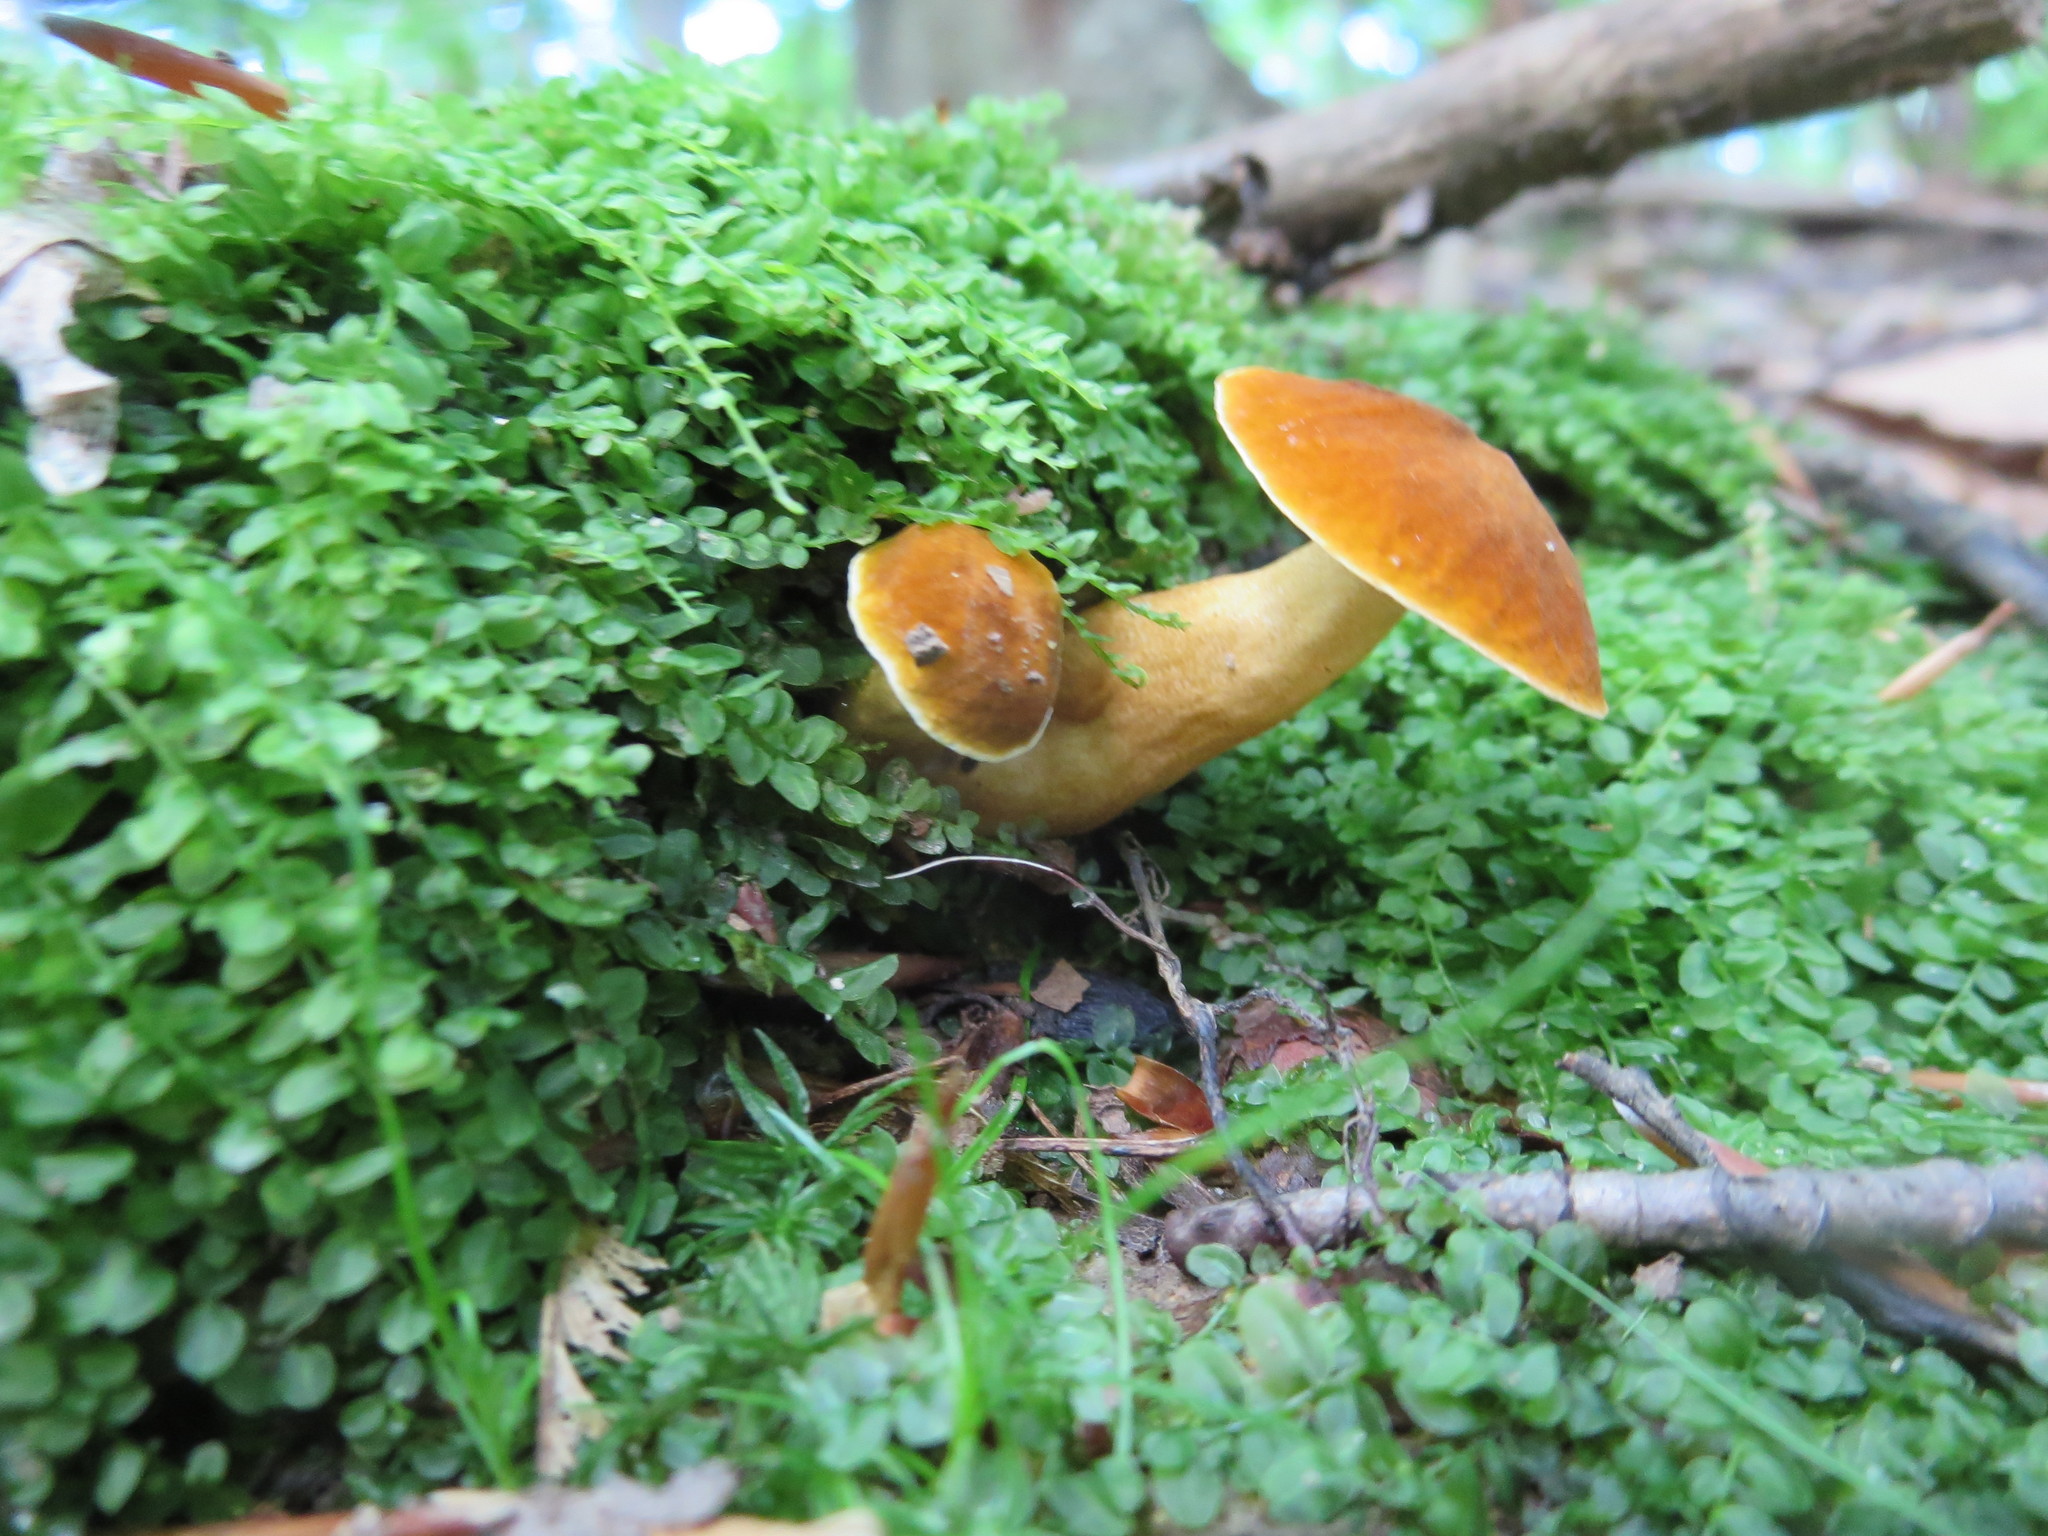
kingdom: Fungi
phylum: Basidiomycota
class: Agaricomycetes
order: Boletales
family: Gyroporaceae
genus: Gyroporus
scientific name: Gyroporus castaneus
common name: Chestnut bolete
